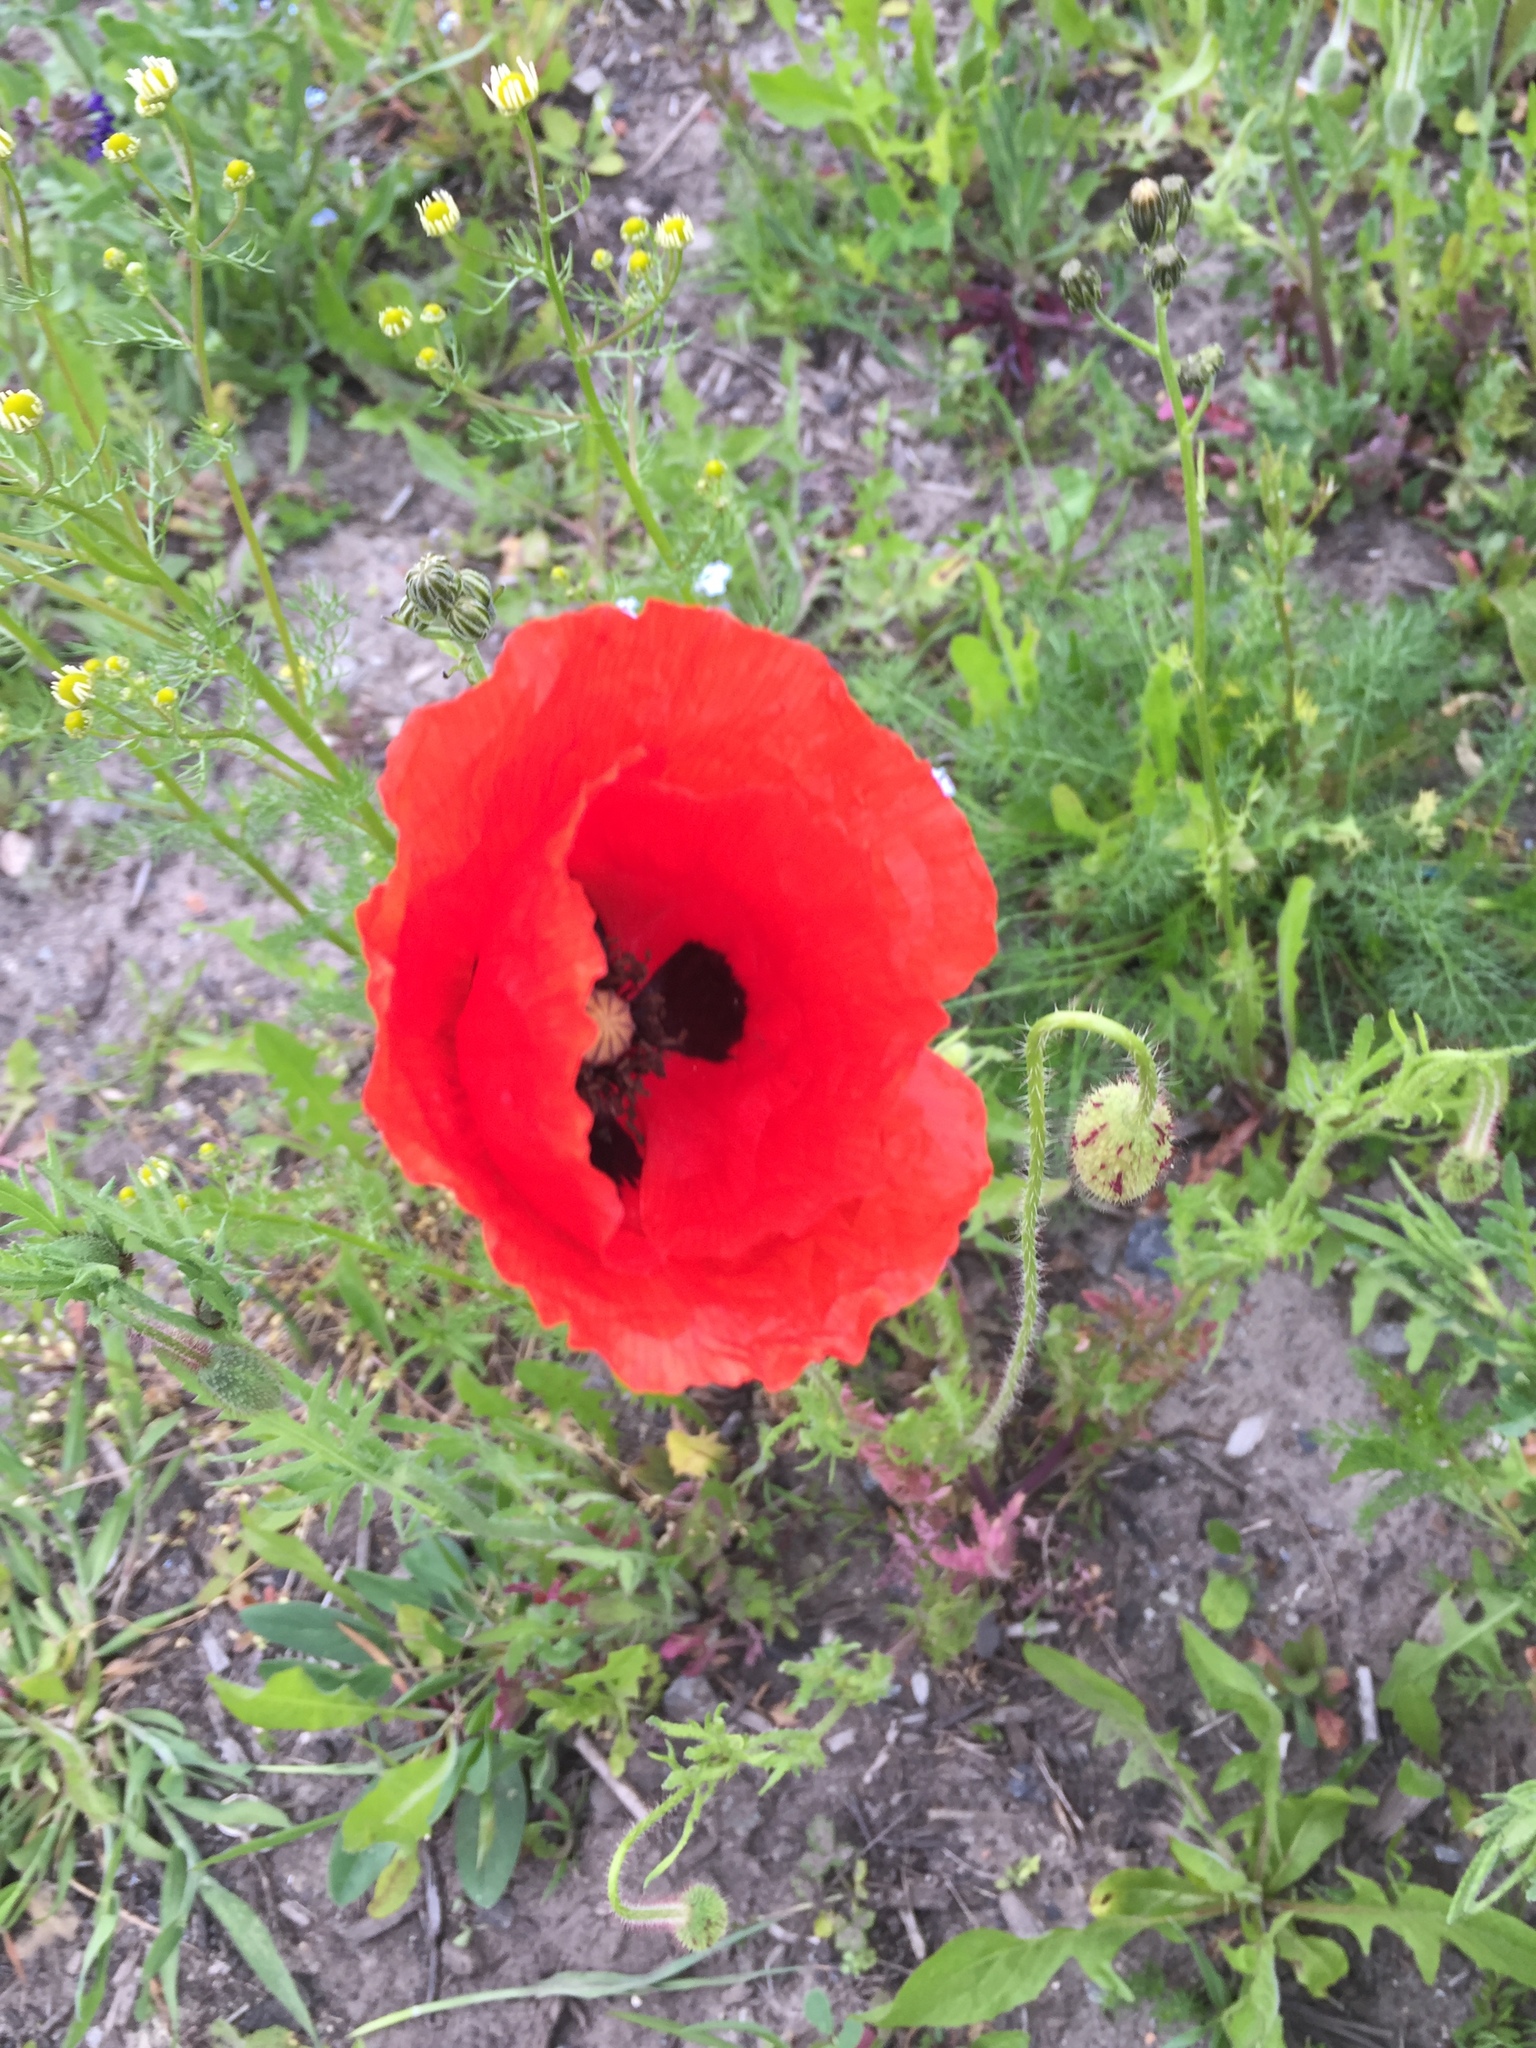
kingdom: Plantae
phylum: Tracheophyta
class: Magnoliopsida
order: Ranunculales
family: Papaveraceae
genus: Papaver
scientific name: Papaver rhoeas
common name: Corn poppy
